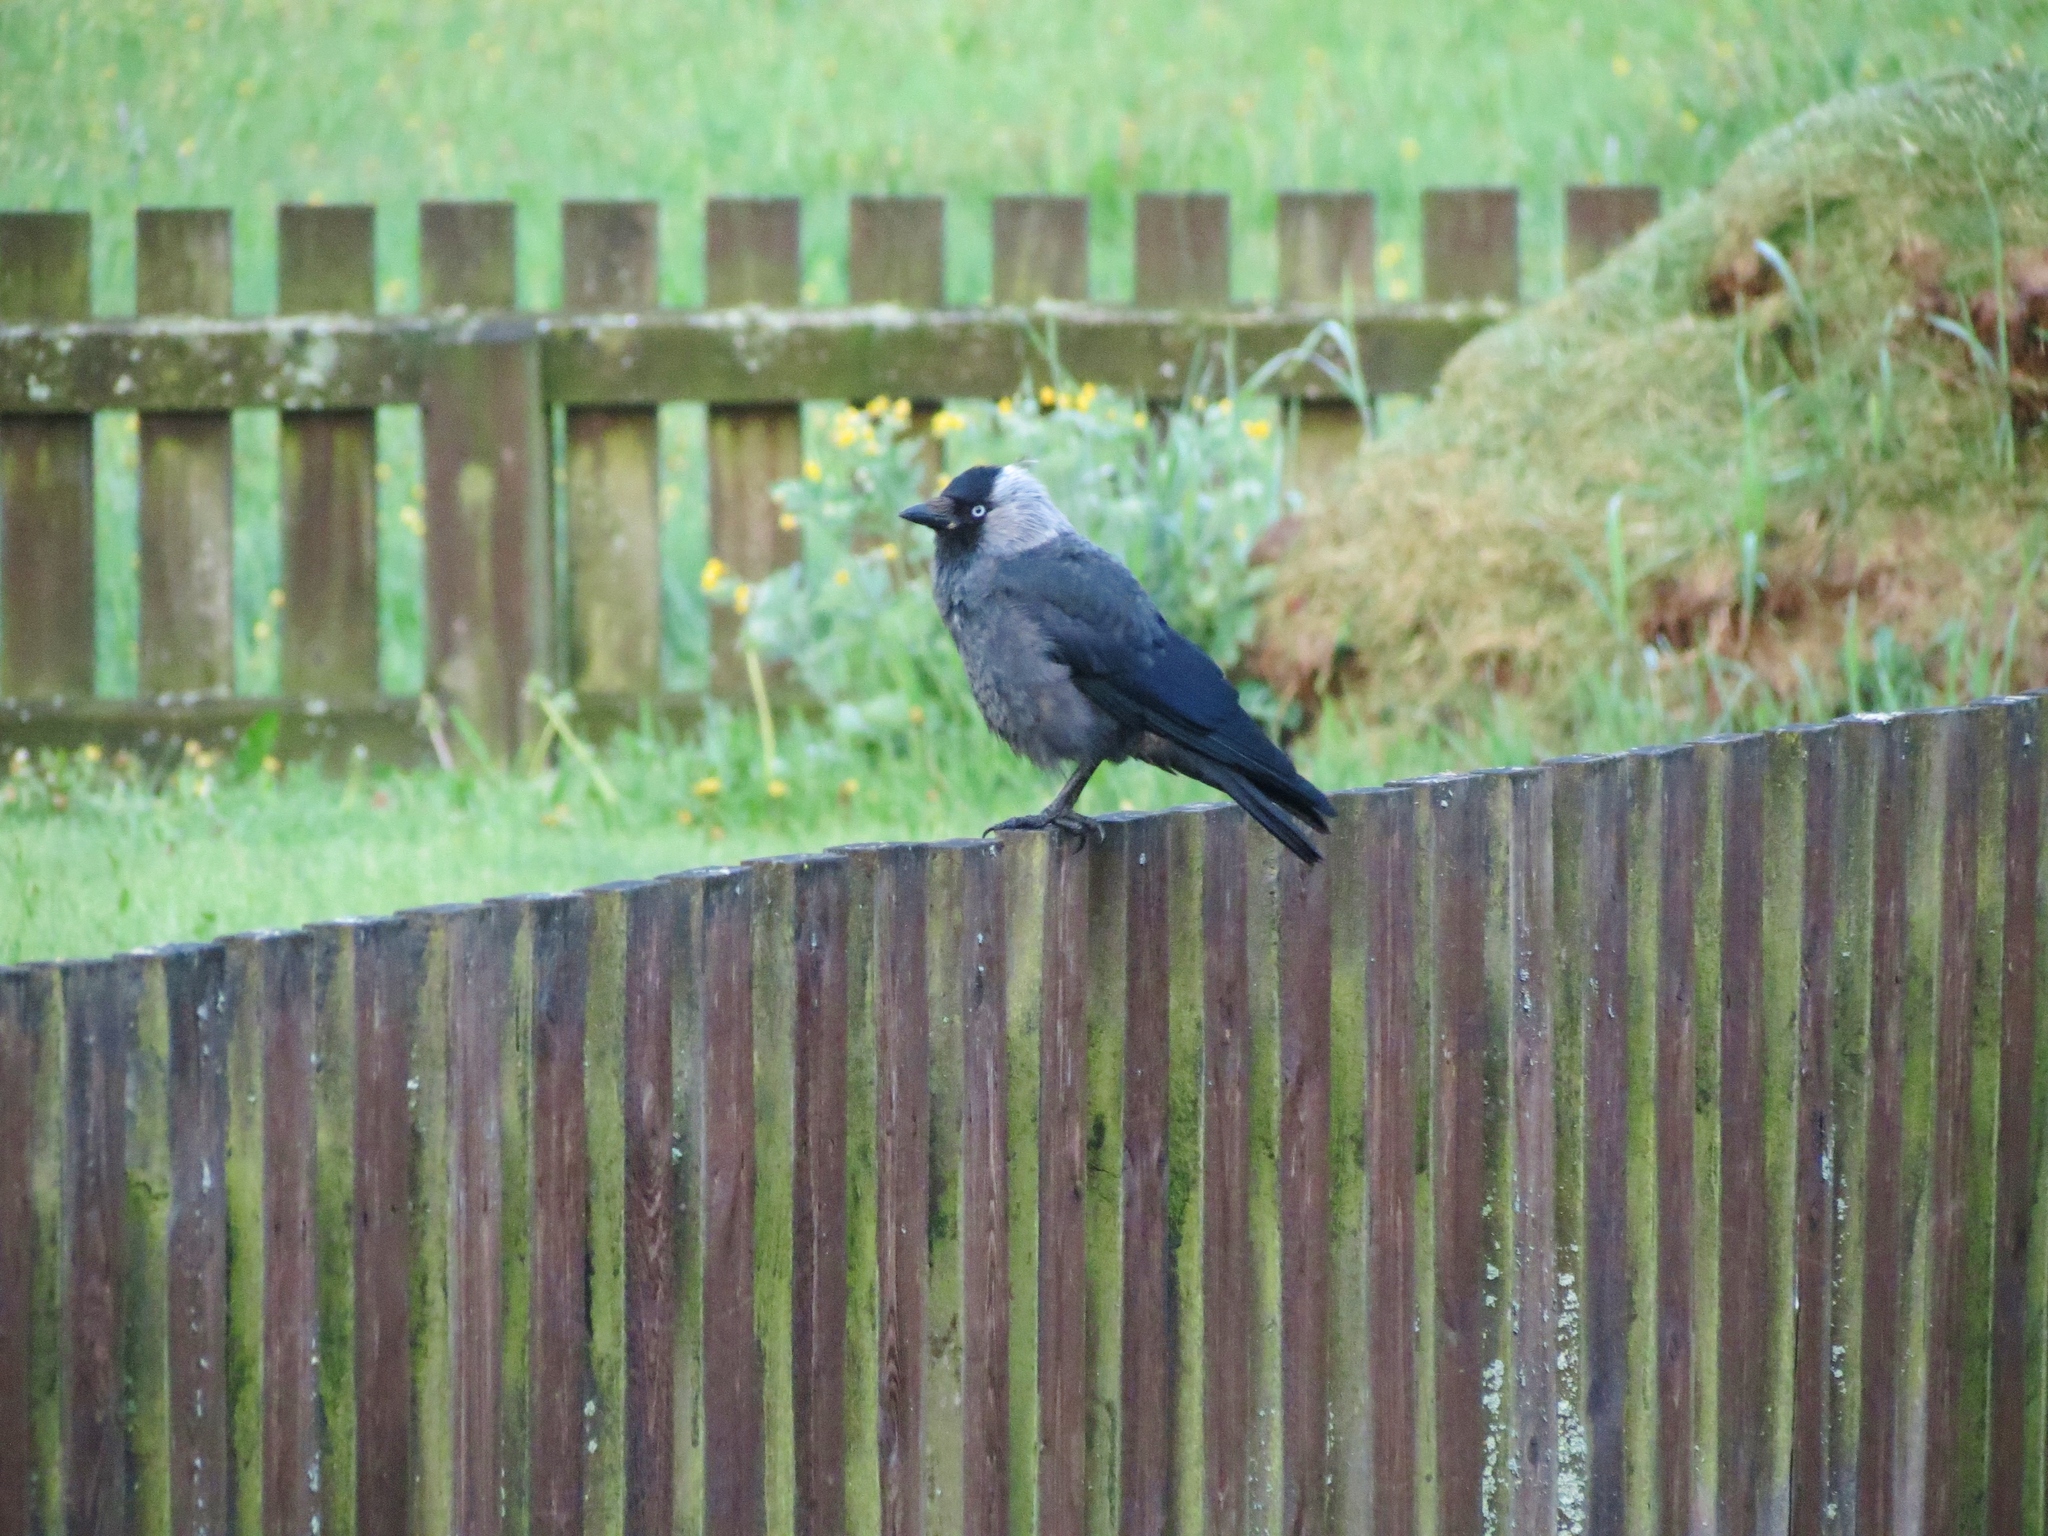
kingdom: Animalia
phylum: Chordata
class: Aves
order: Passeriformes
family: Corvidae
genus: Coloeus
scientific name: Coloeus monedula
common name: Western jackdaw
